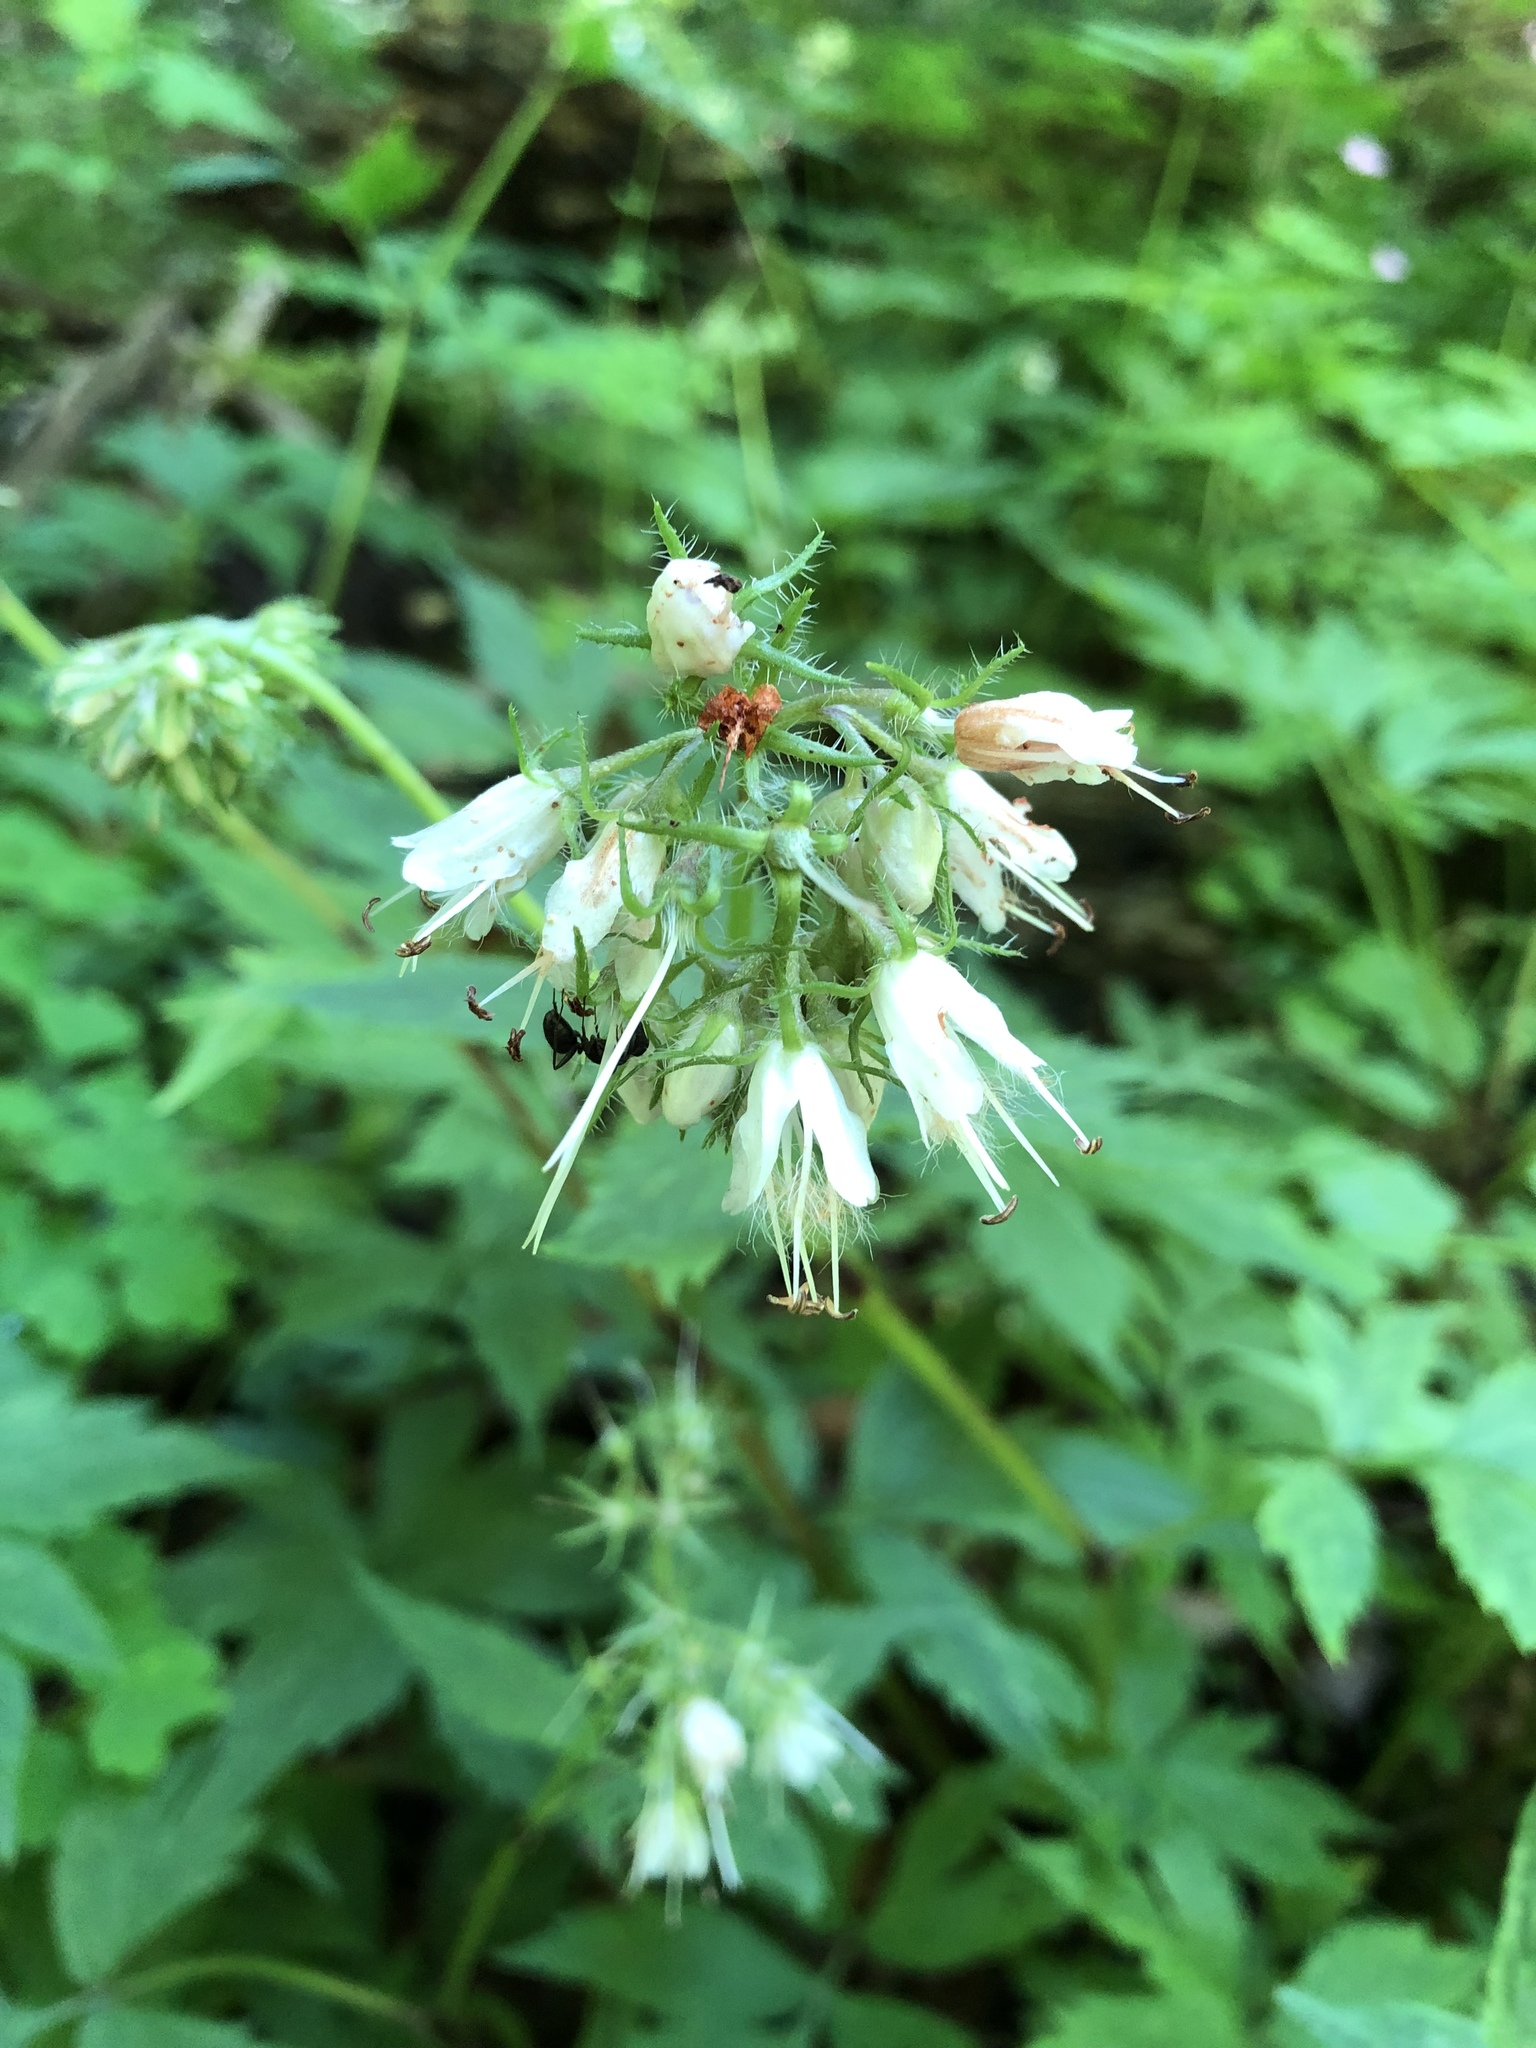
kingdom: Plantae
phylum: Tracheophyta
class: Magnoliopsida
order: Boraginales
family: Hydrophyllaceae
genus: Hydrophyllum
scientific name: Hydrophyllum virginianum
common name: Virginia waterleaf
